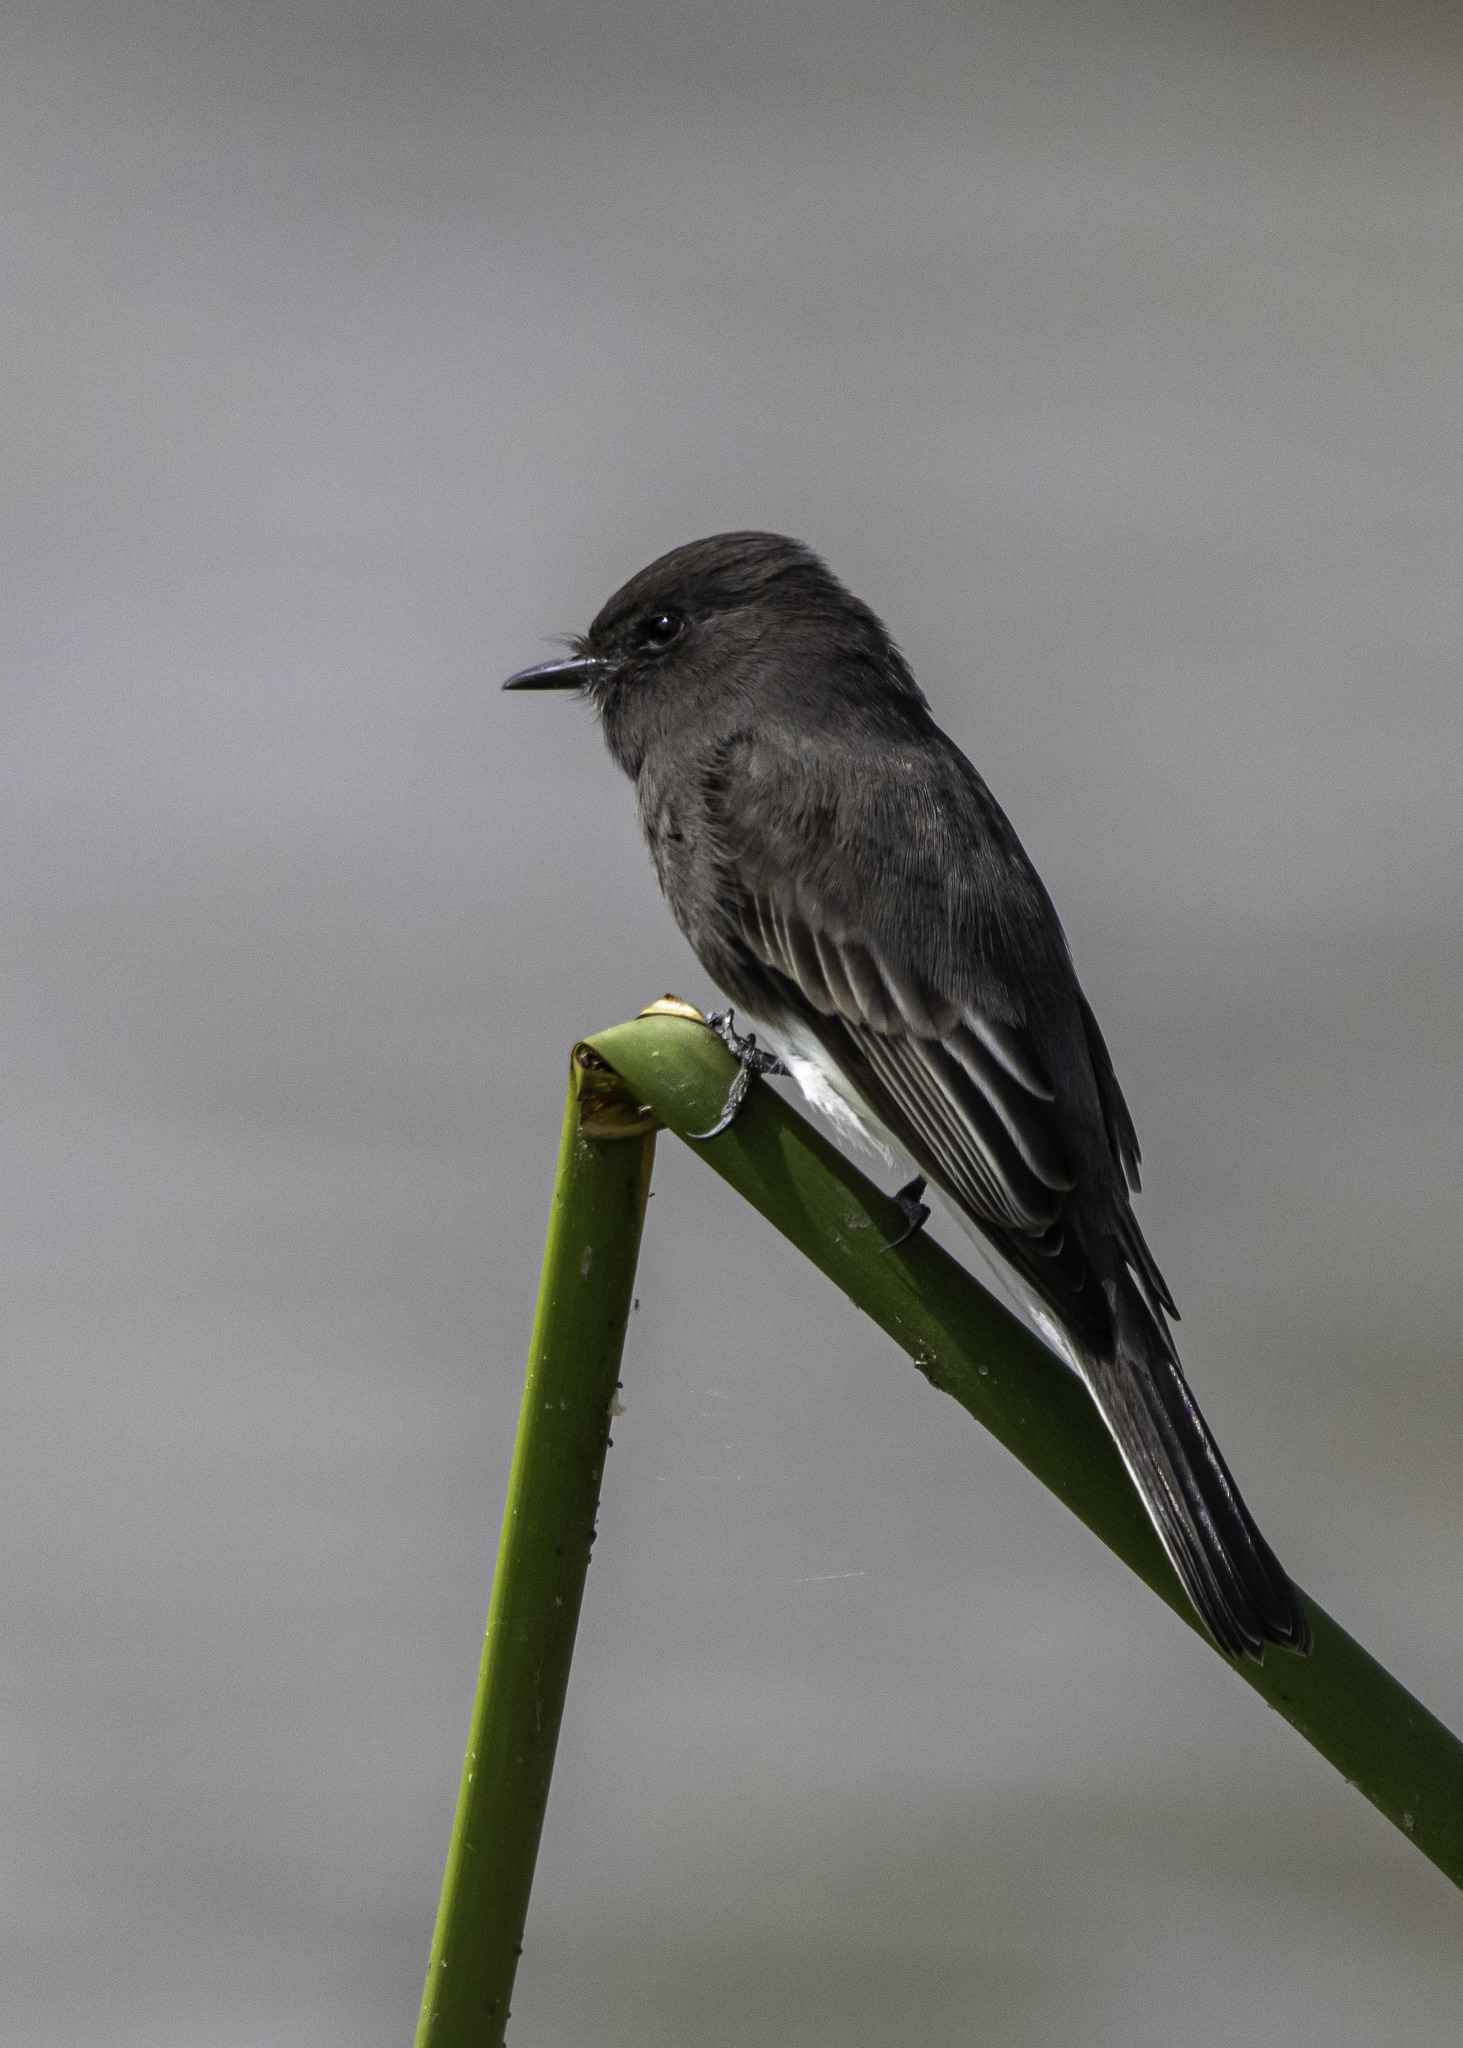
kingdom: Animalia
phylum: Chordata
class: Aves
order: Passeriformes
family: Tyrannidae
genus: Sayornis
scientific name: Sayornis nigricans
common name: Black phoebe
